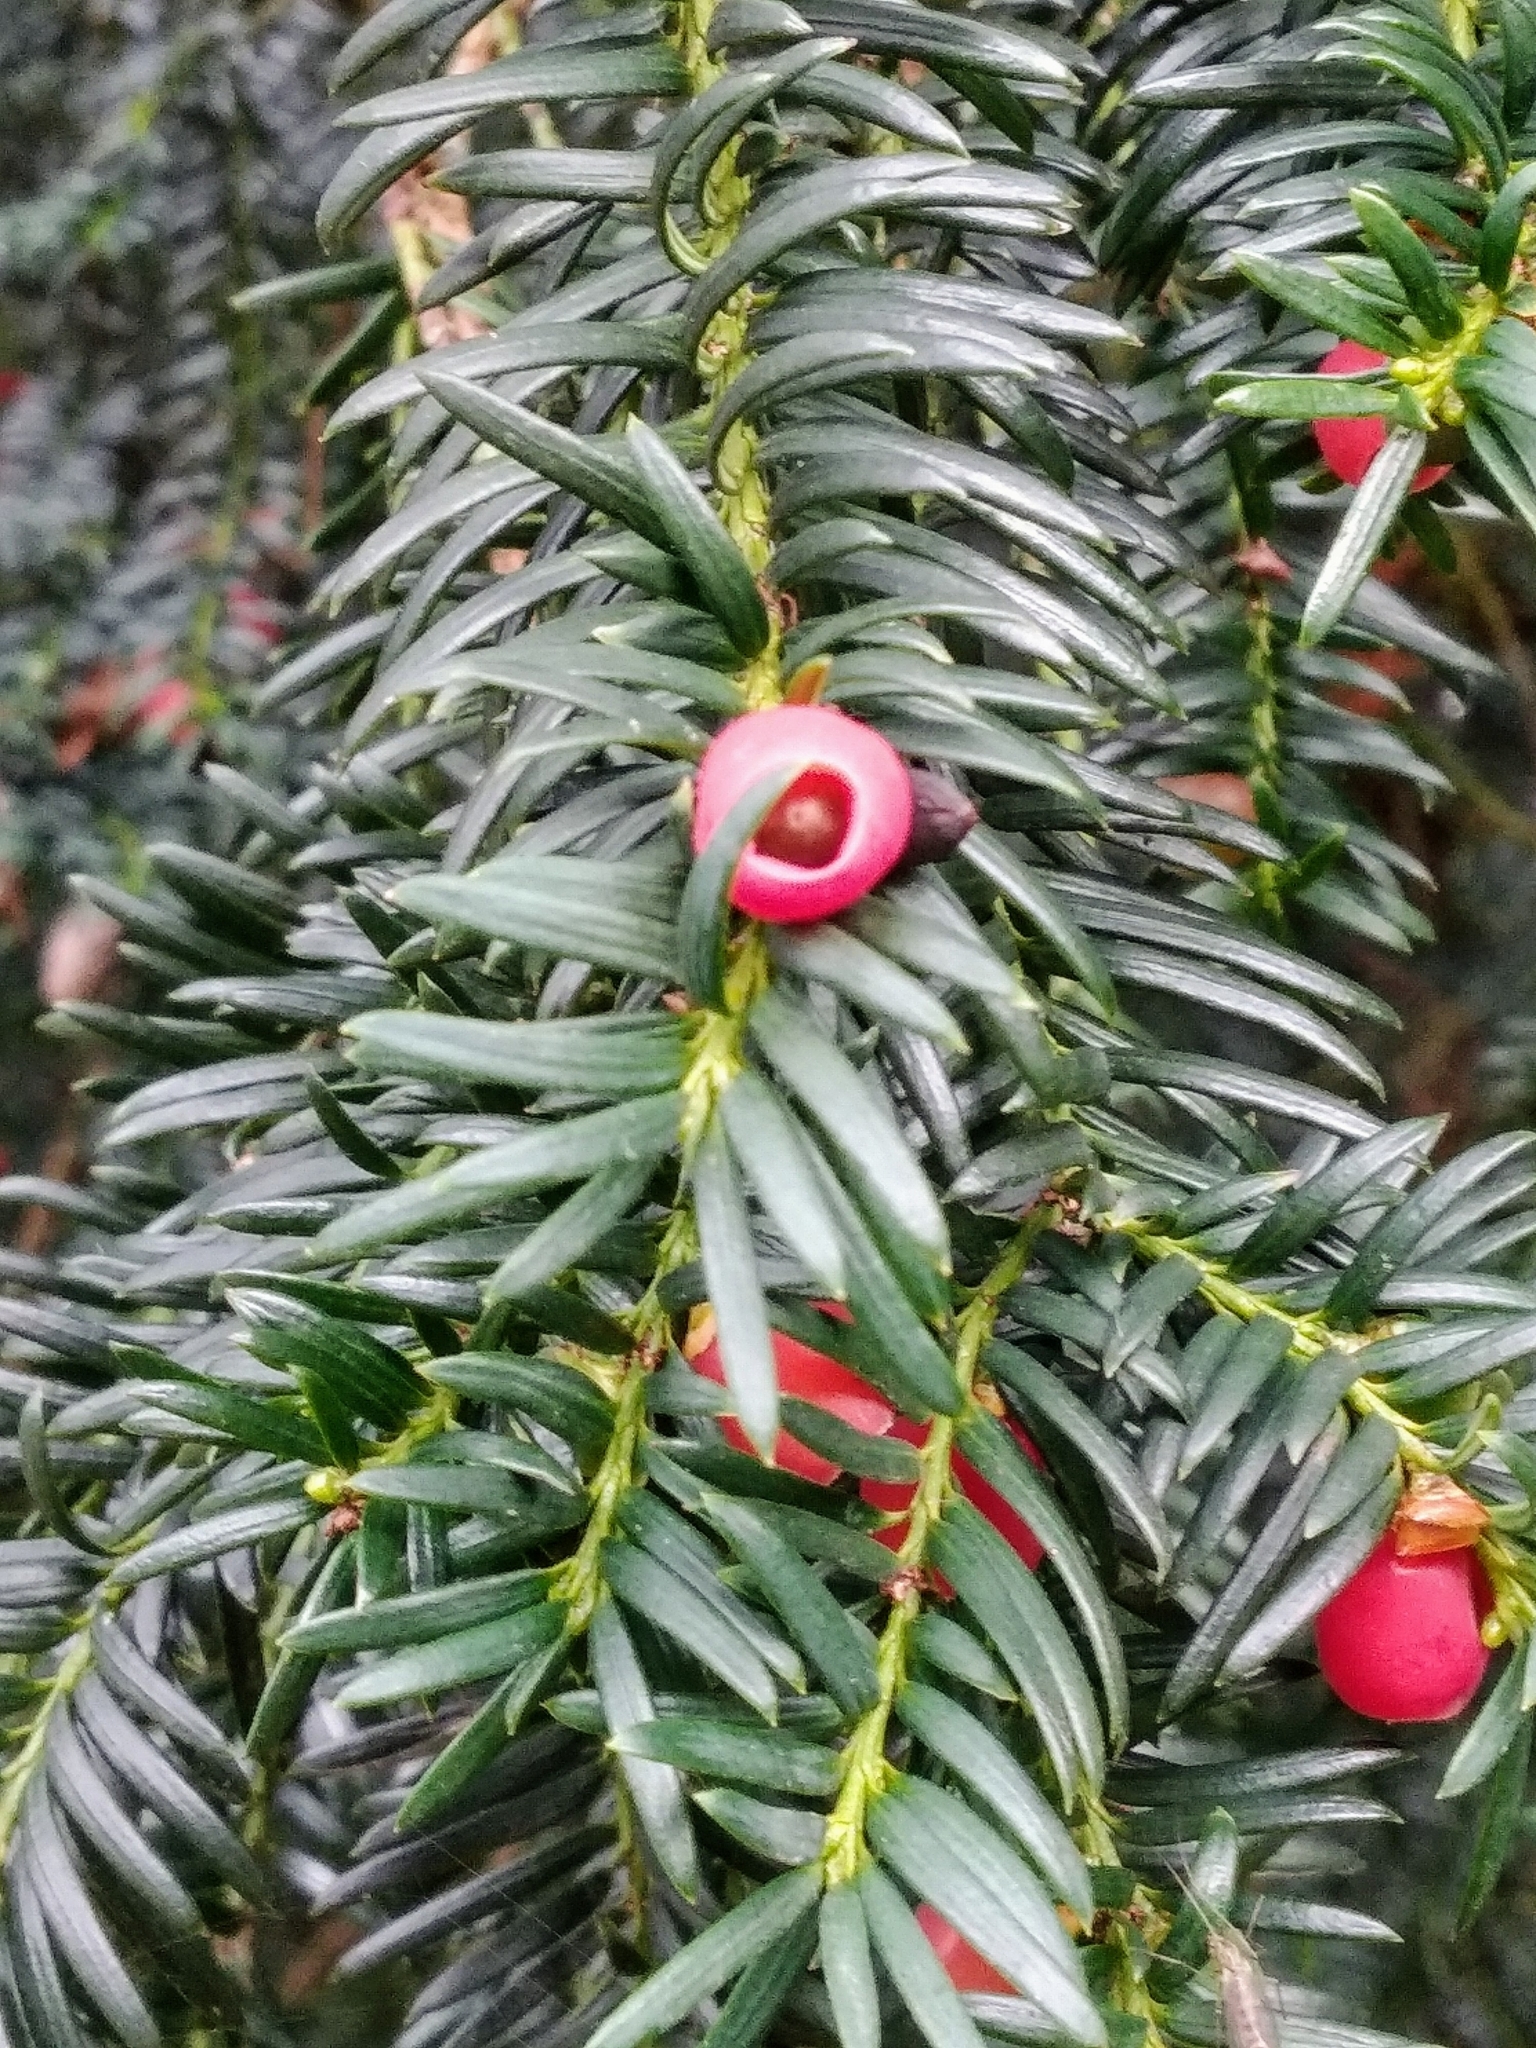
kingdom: Plantae
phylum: Tracheophyta
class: Pinopsida
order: Pinales
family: Taxaceae
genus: Taxus
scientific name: Taxus baccata
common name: Yew
